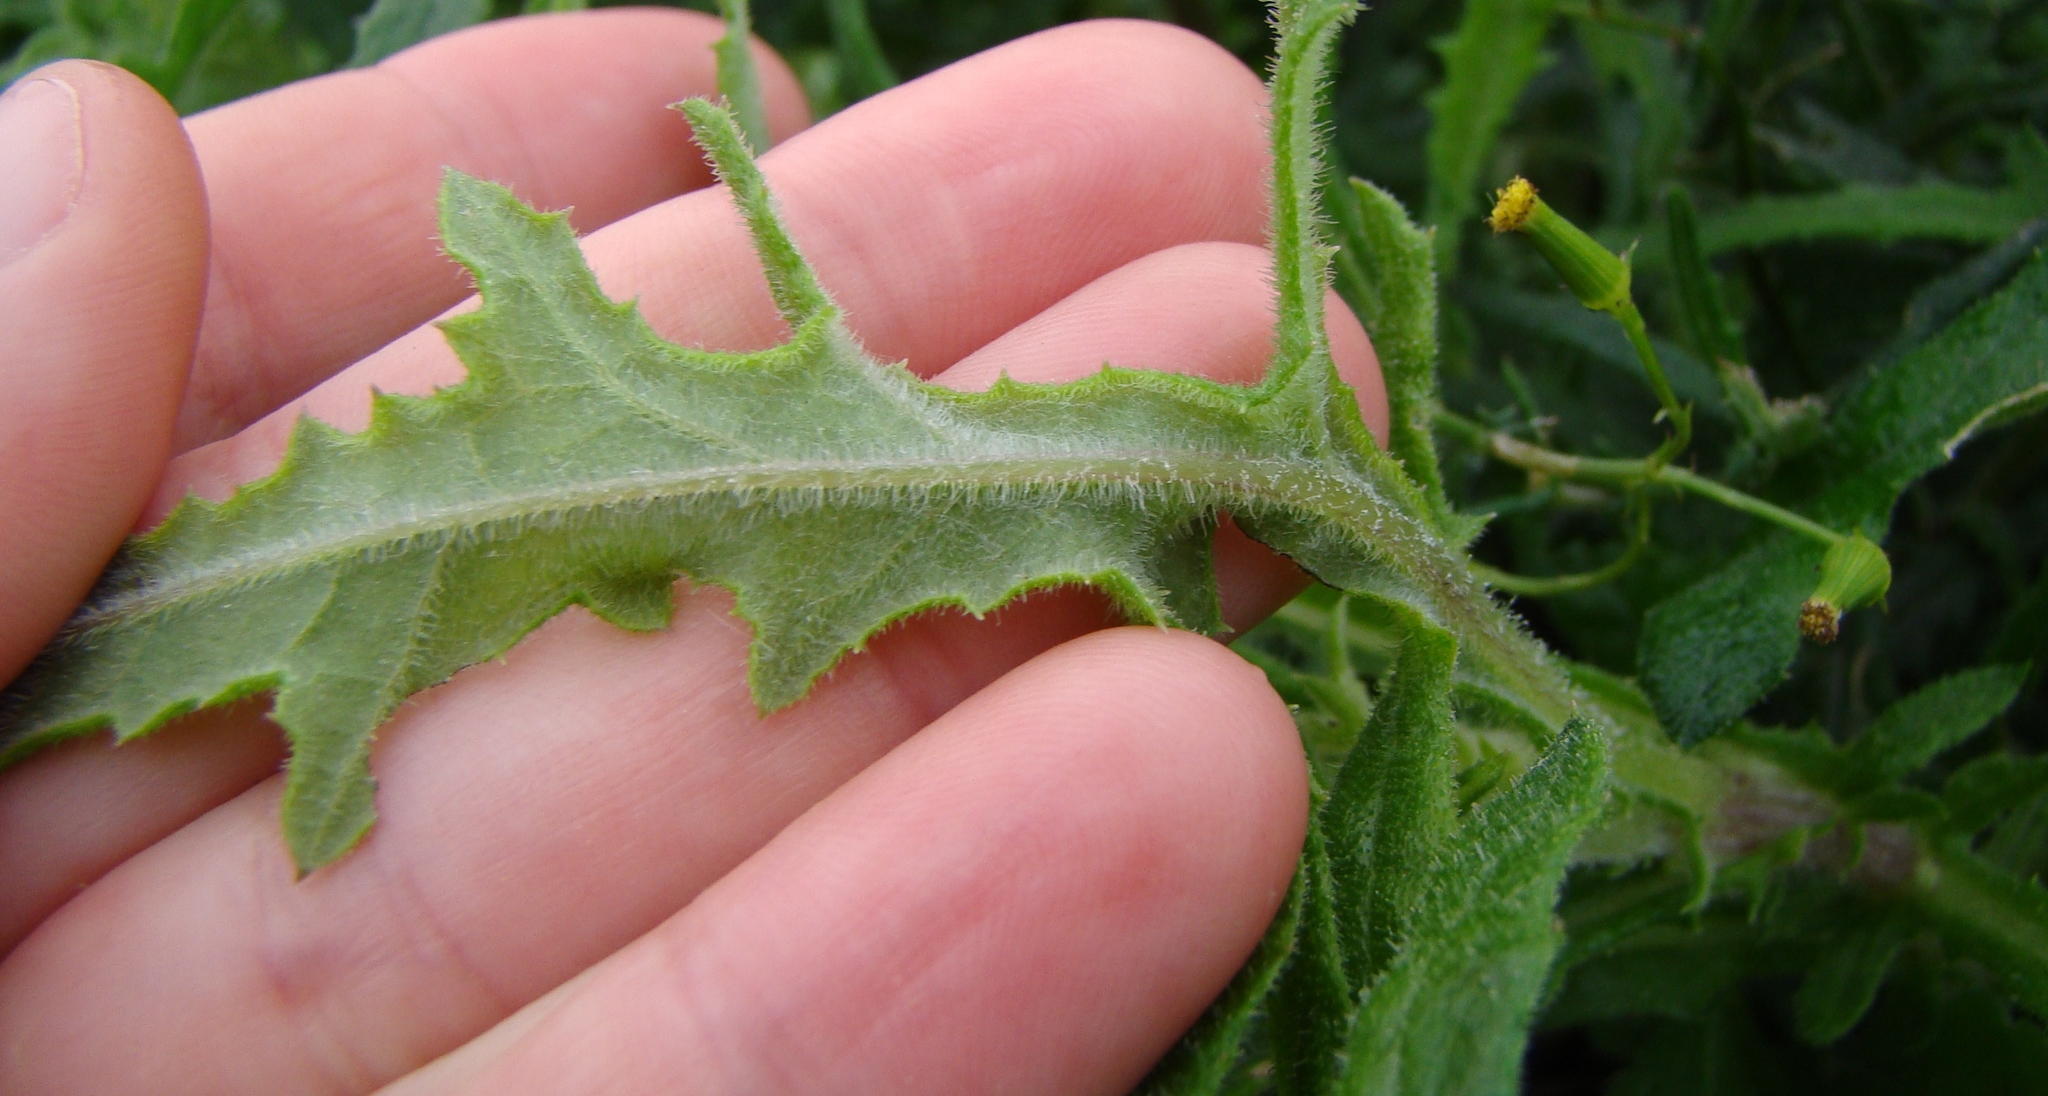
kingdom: Plantae
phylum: Tracheophyta
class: Magnoliopsida
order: Asterales
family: Asteraceae
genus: Senecio
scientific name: Senecio hispidulus
